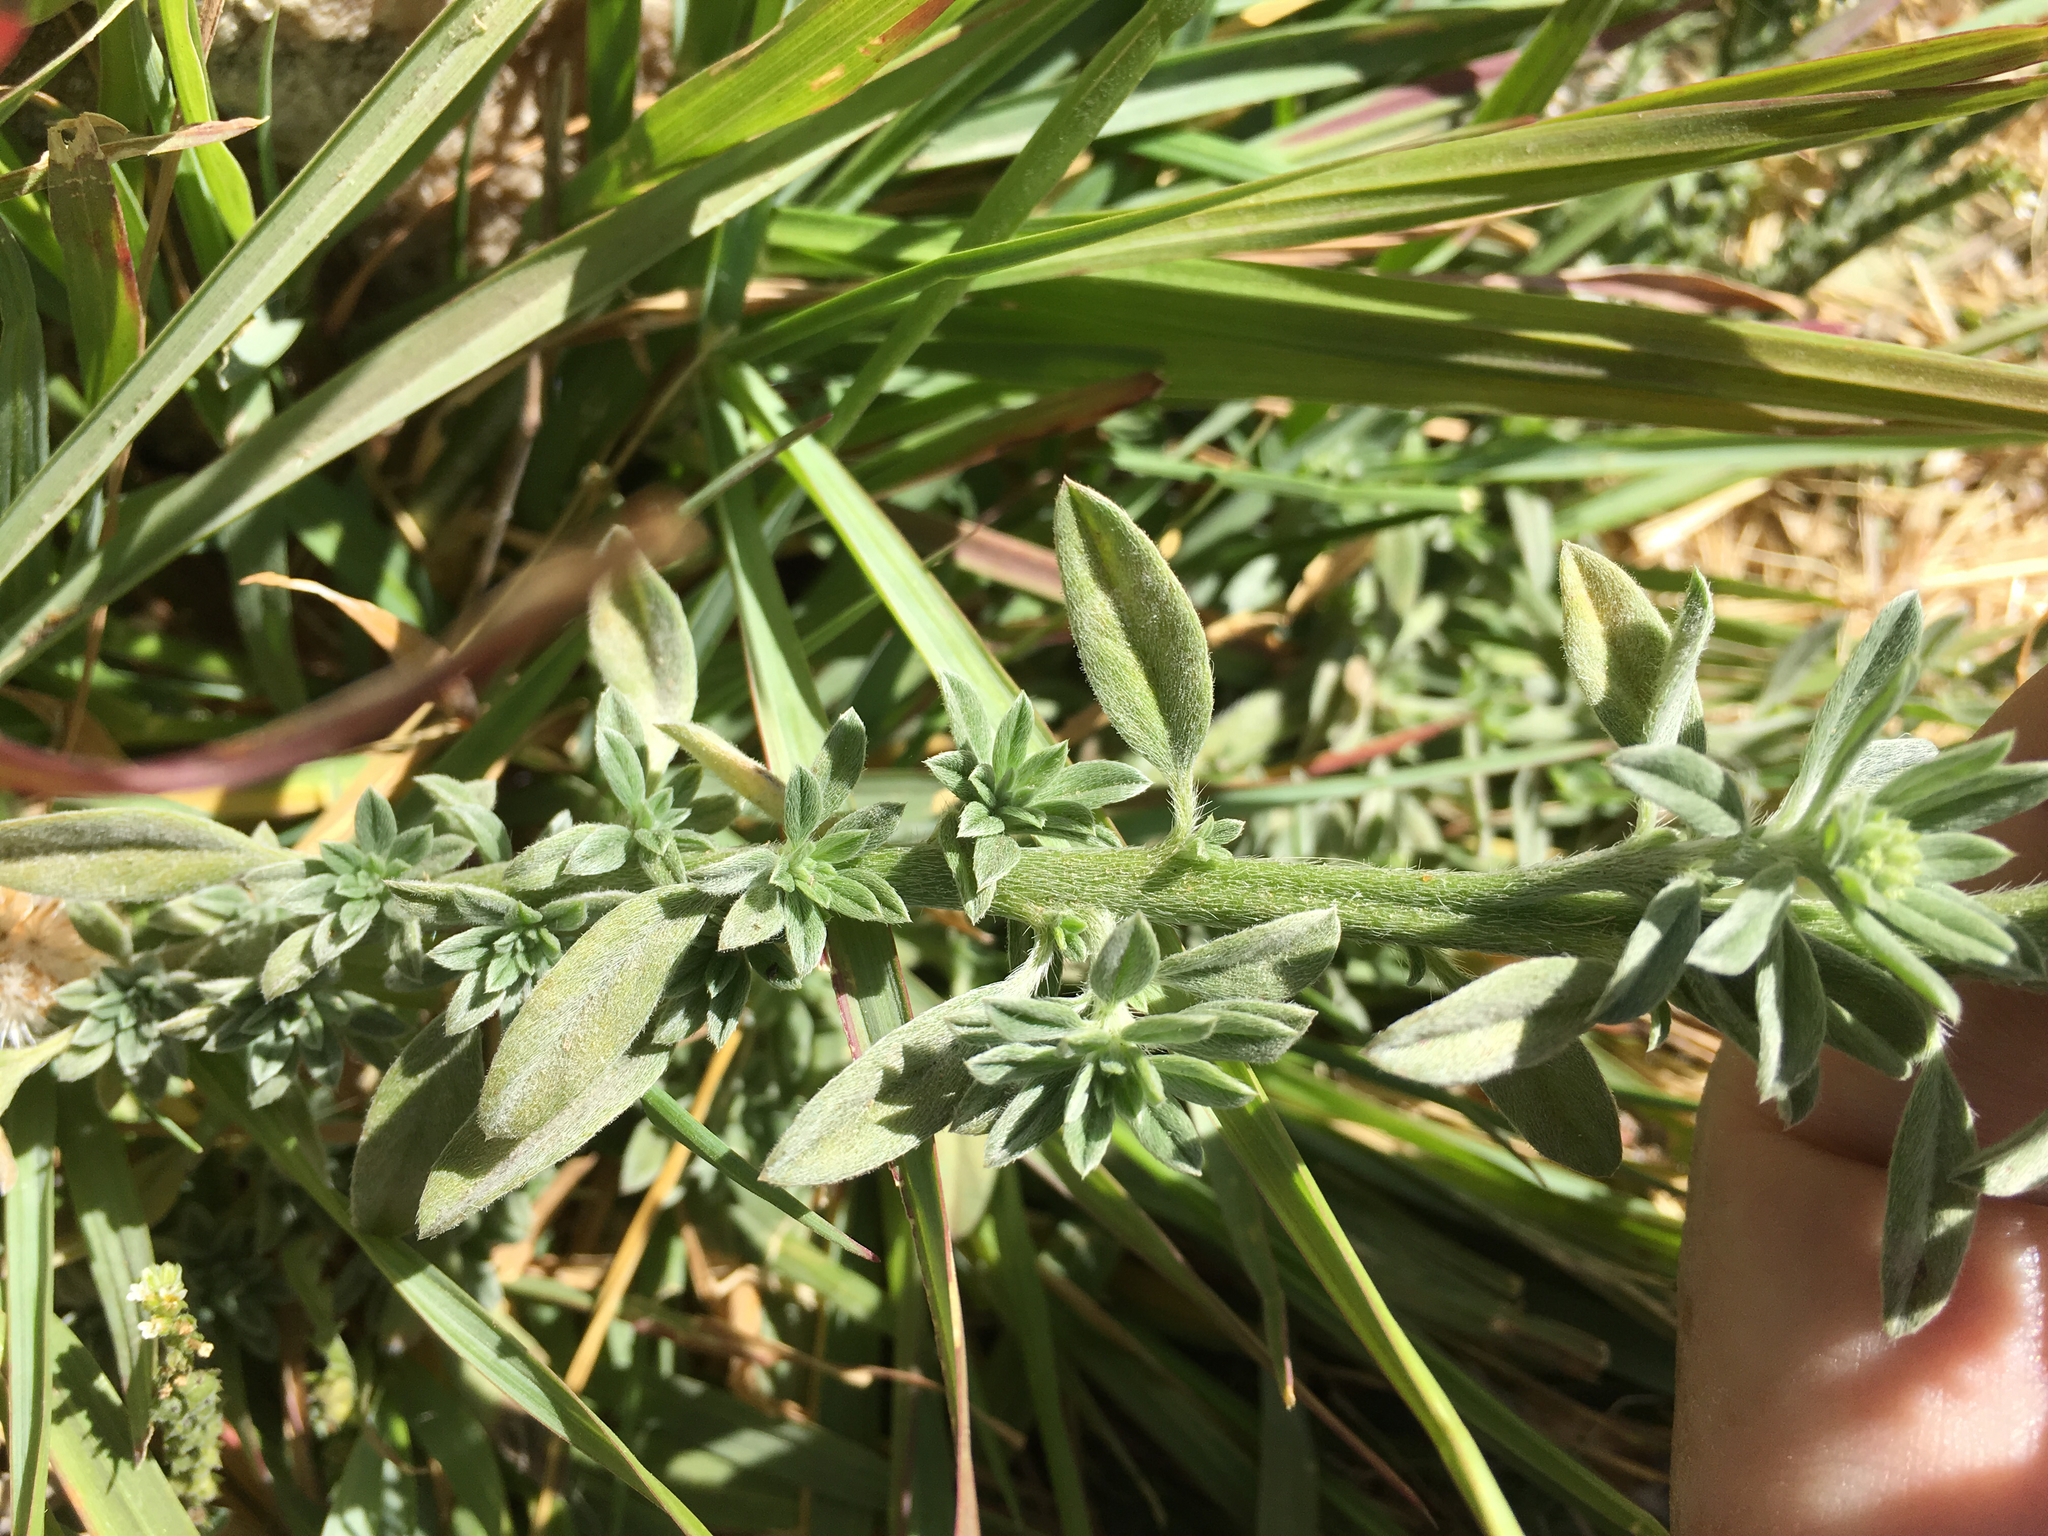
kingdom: Plantae
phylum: Tracheophyta
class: Magnoliopsida
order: Boraginales
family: Heliotropiaceae
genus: Euploca
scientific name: Euploca procumbens
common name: Fourspike heliotrope
